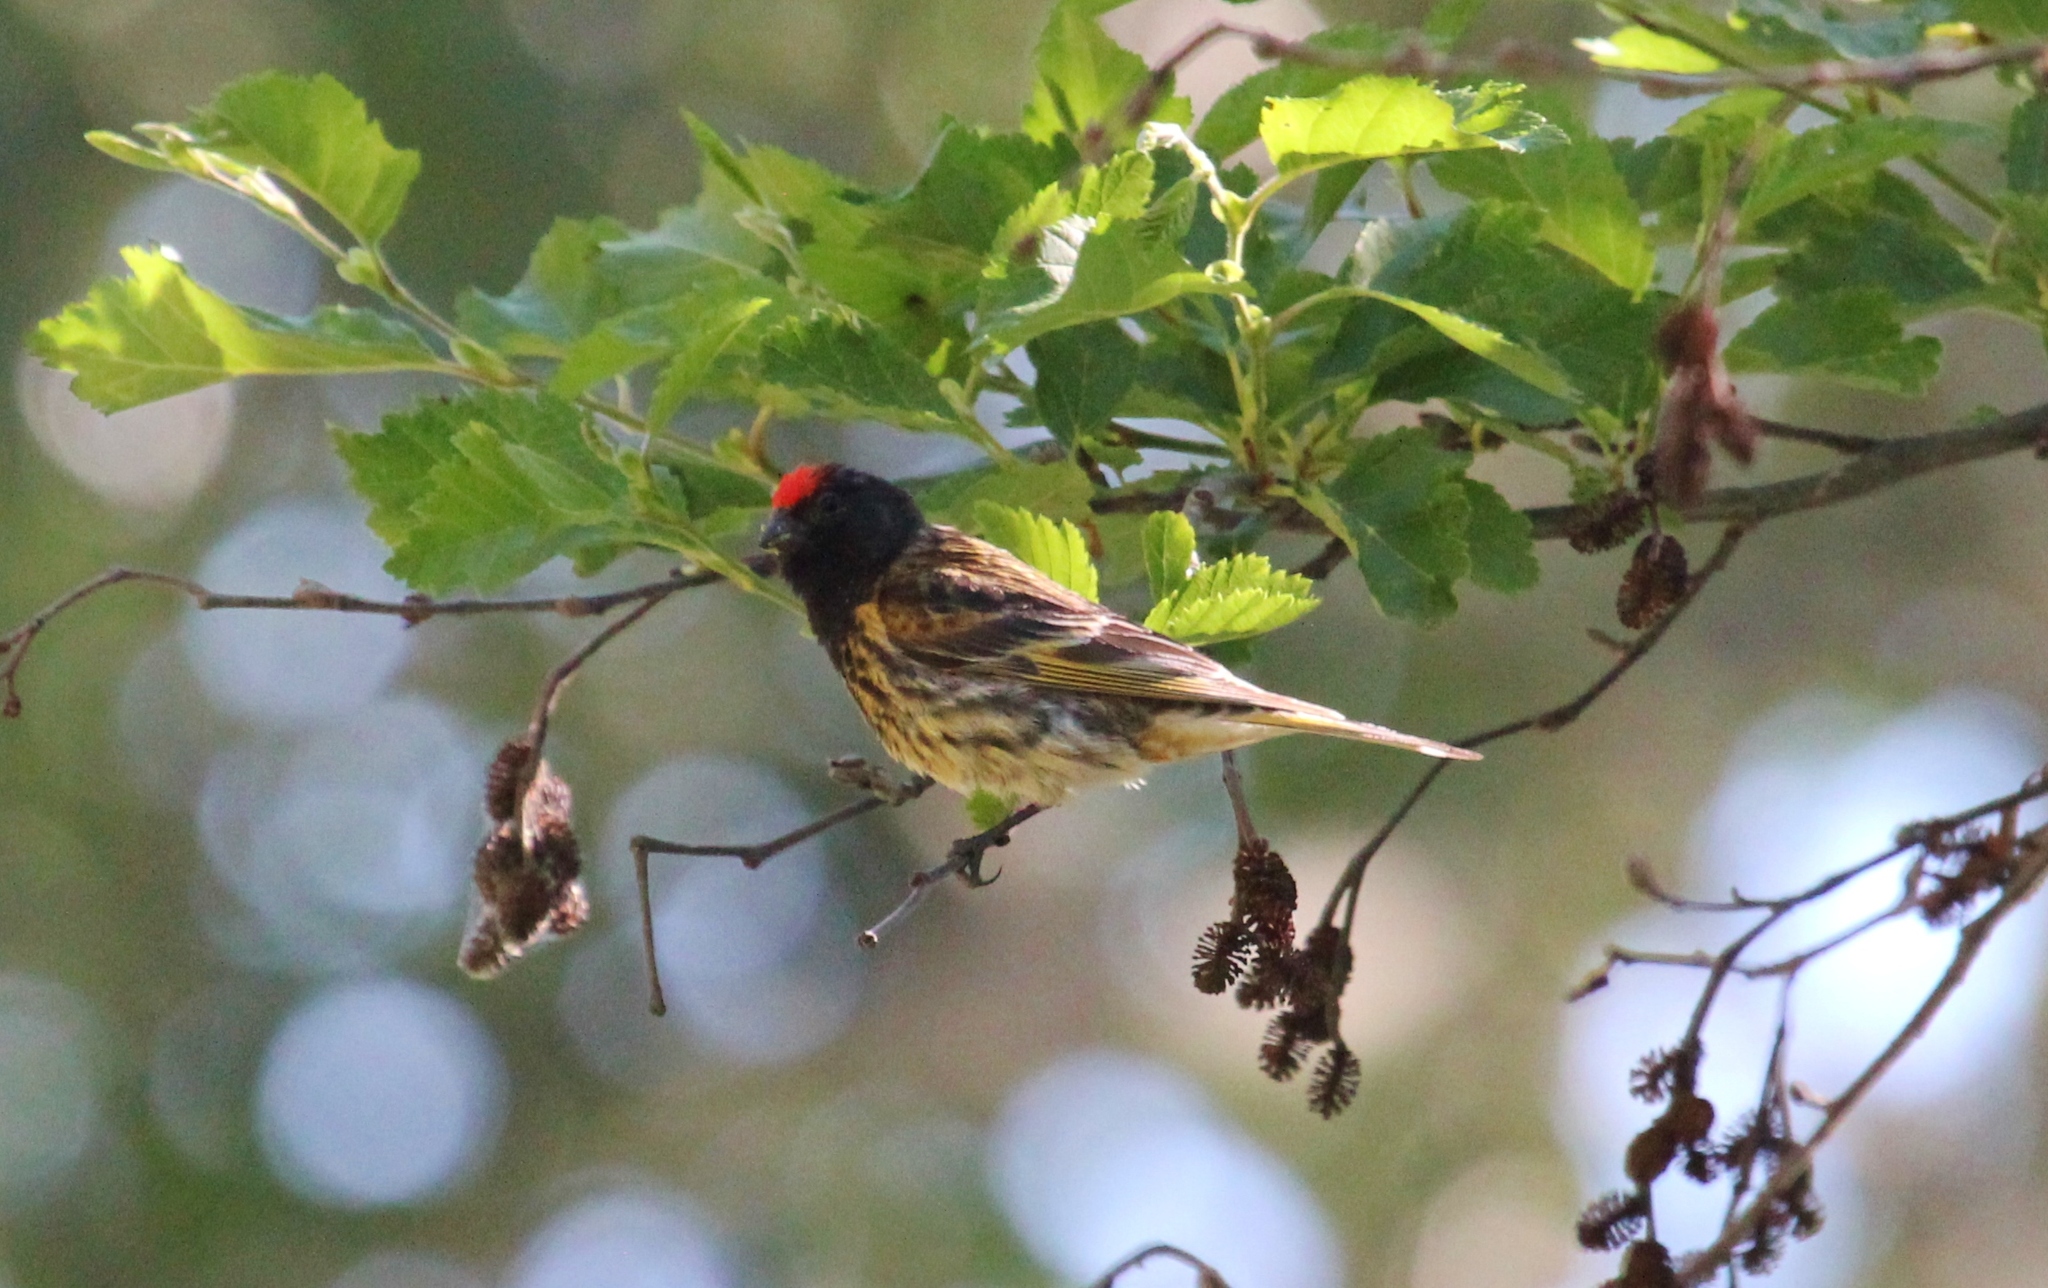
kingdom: Animalia
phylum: Chordata
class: Aves
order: Passeriformes
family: Fringillidae
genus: Serinus
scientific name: Serinus pusillus
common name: Red-fronted serin
